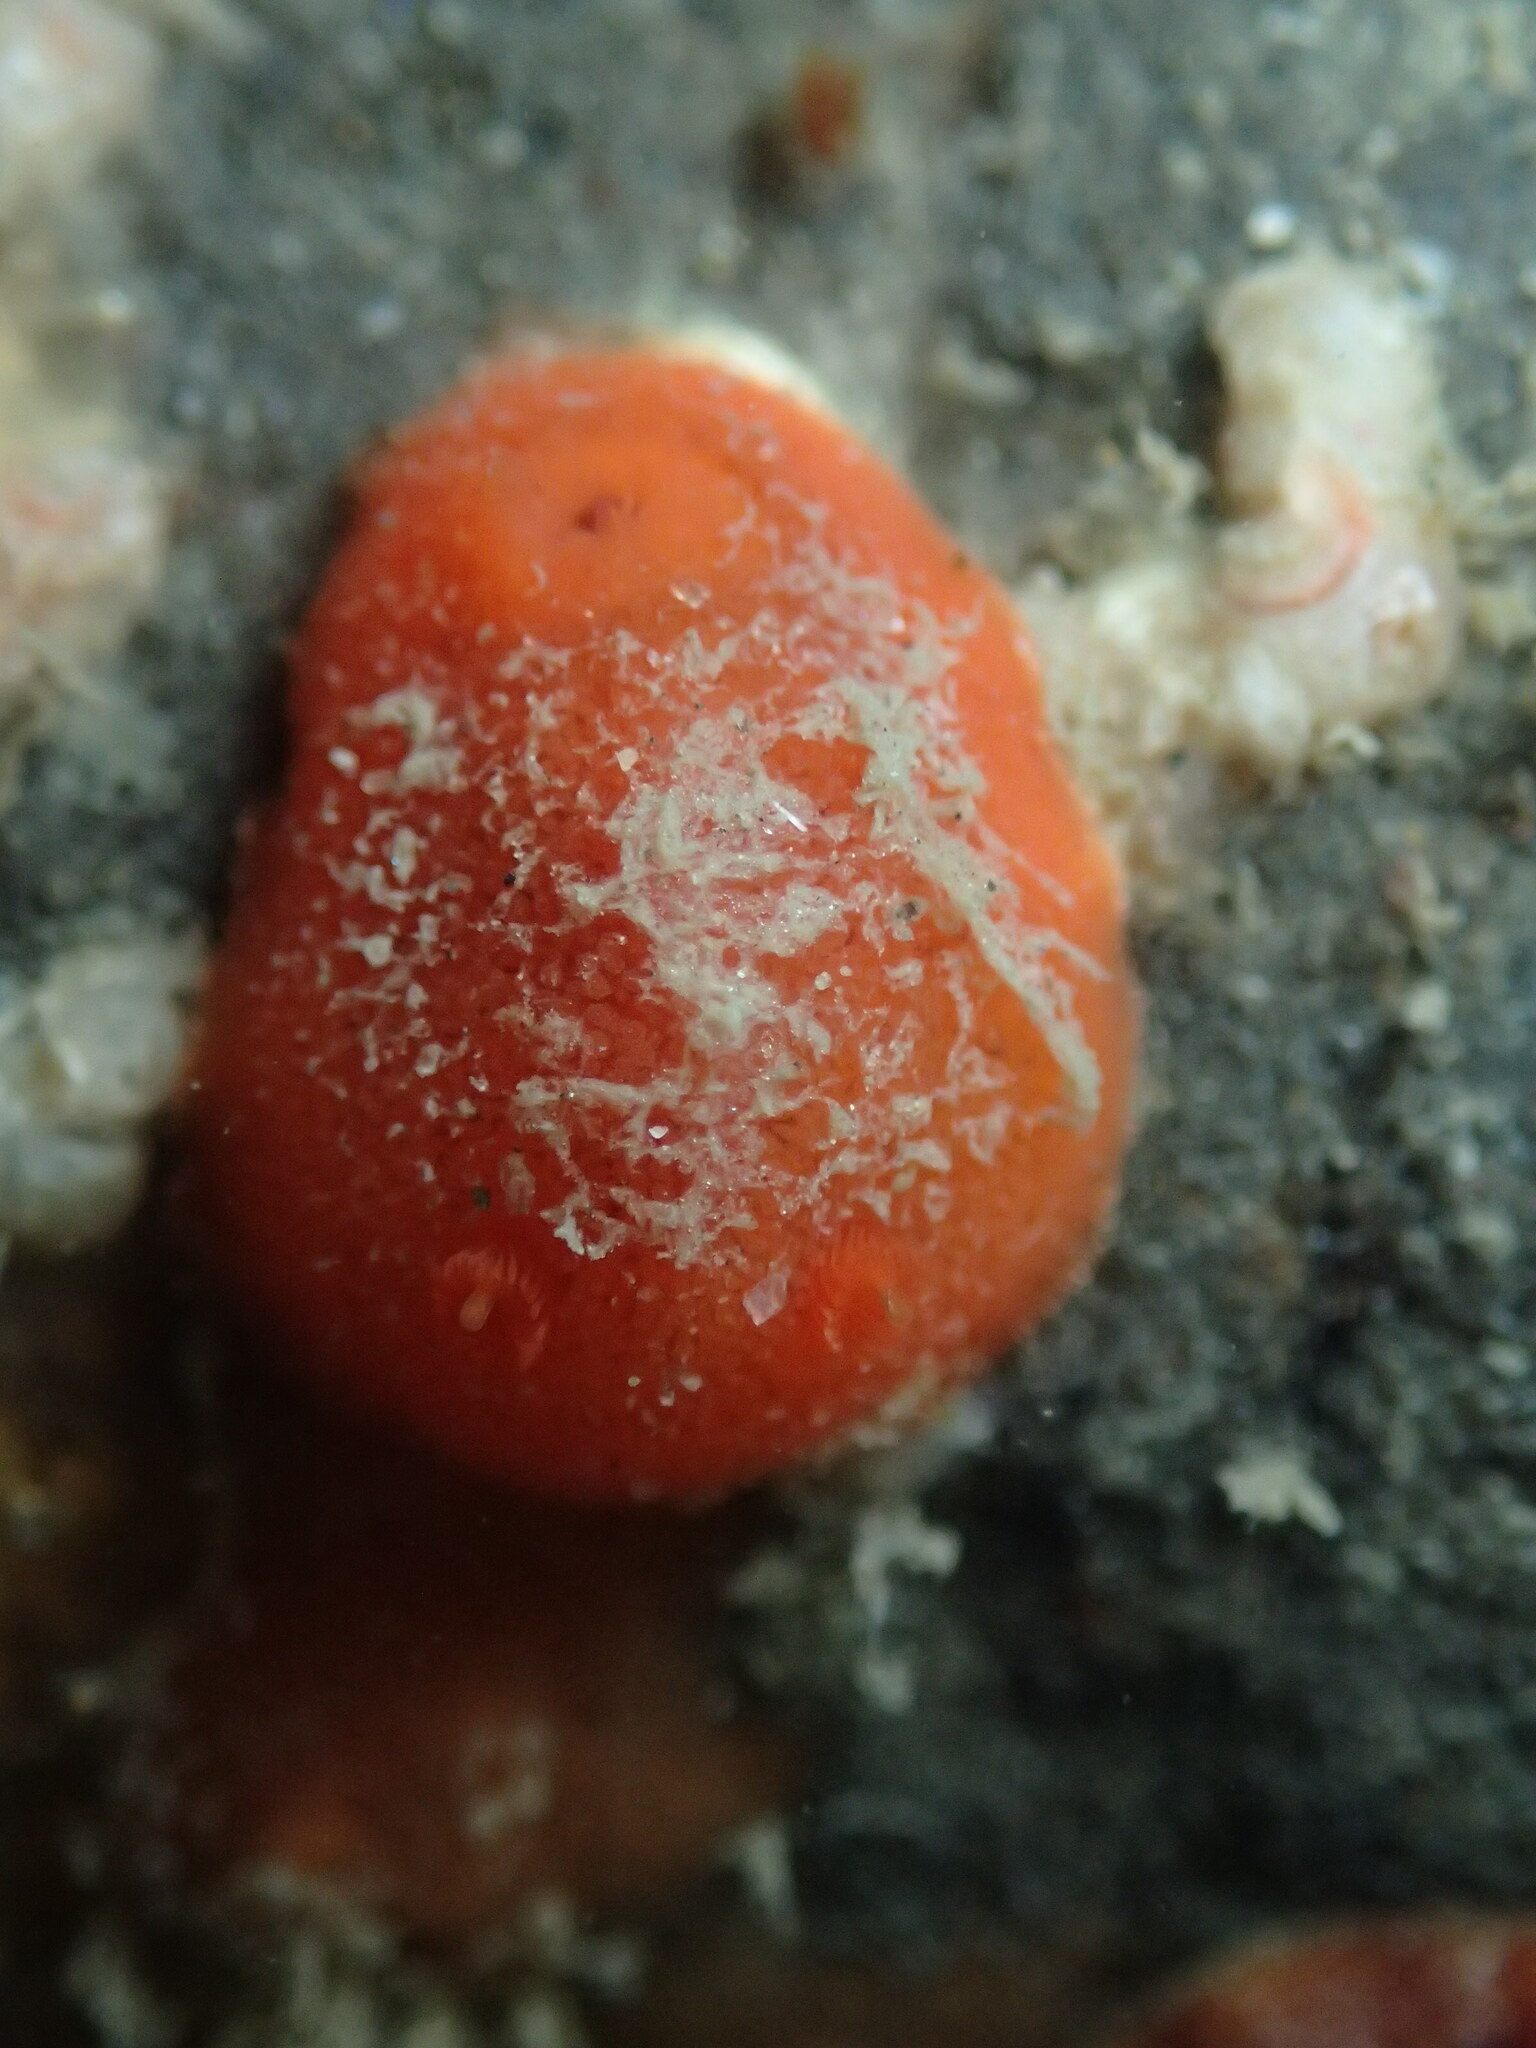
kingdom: Animalia
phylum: Mollusca
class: Gastropoda
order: Nudibranchia
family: Discodorididae
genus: Rostanga
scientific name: Rostanga pulchra
